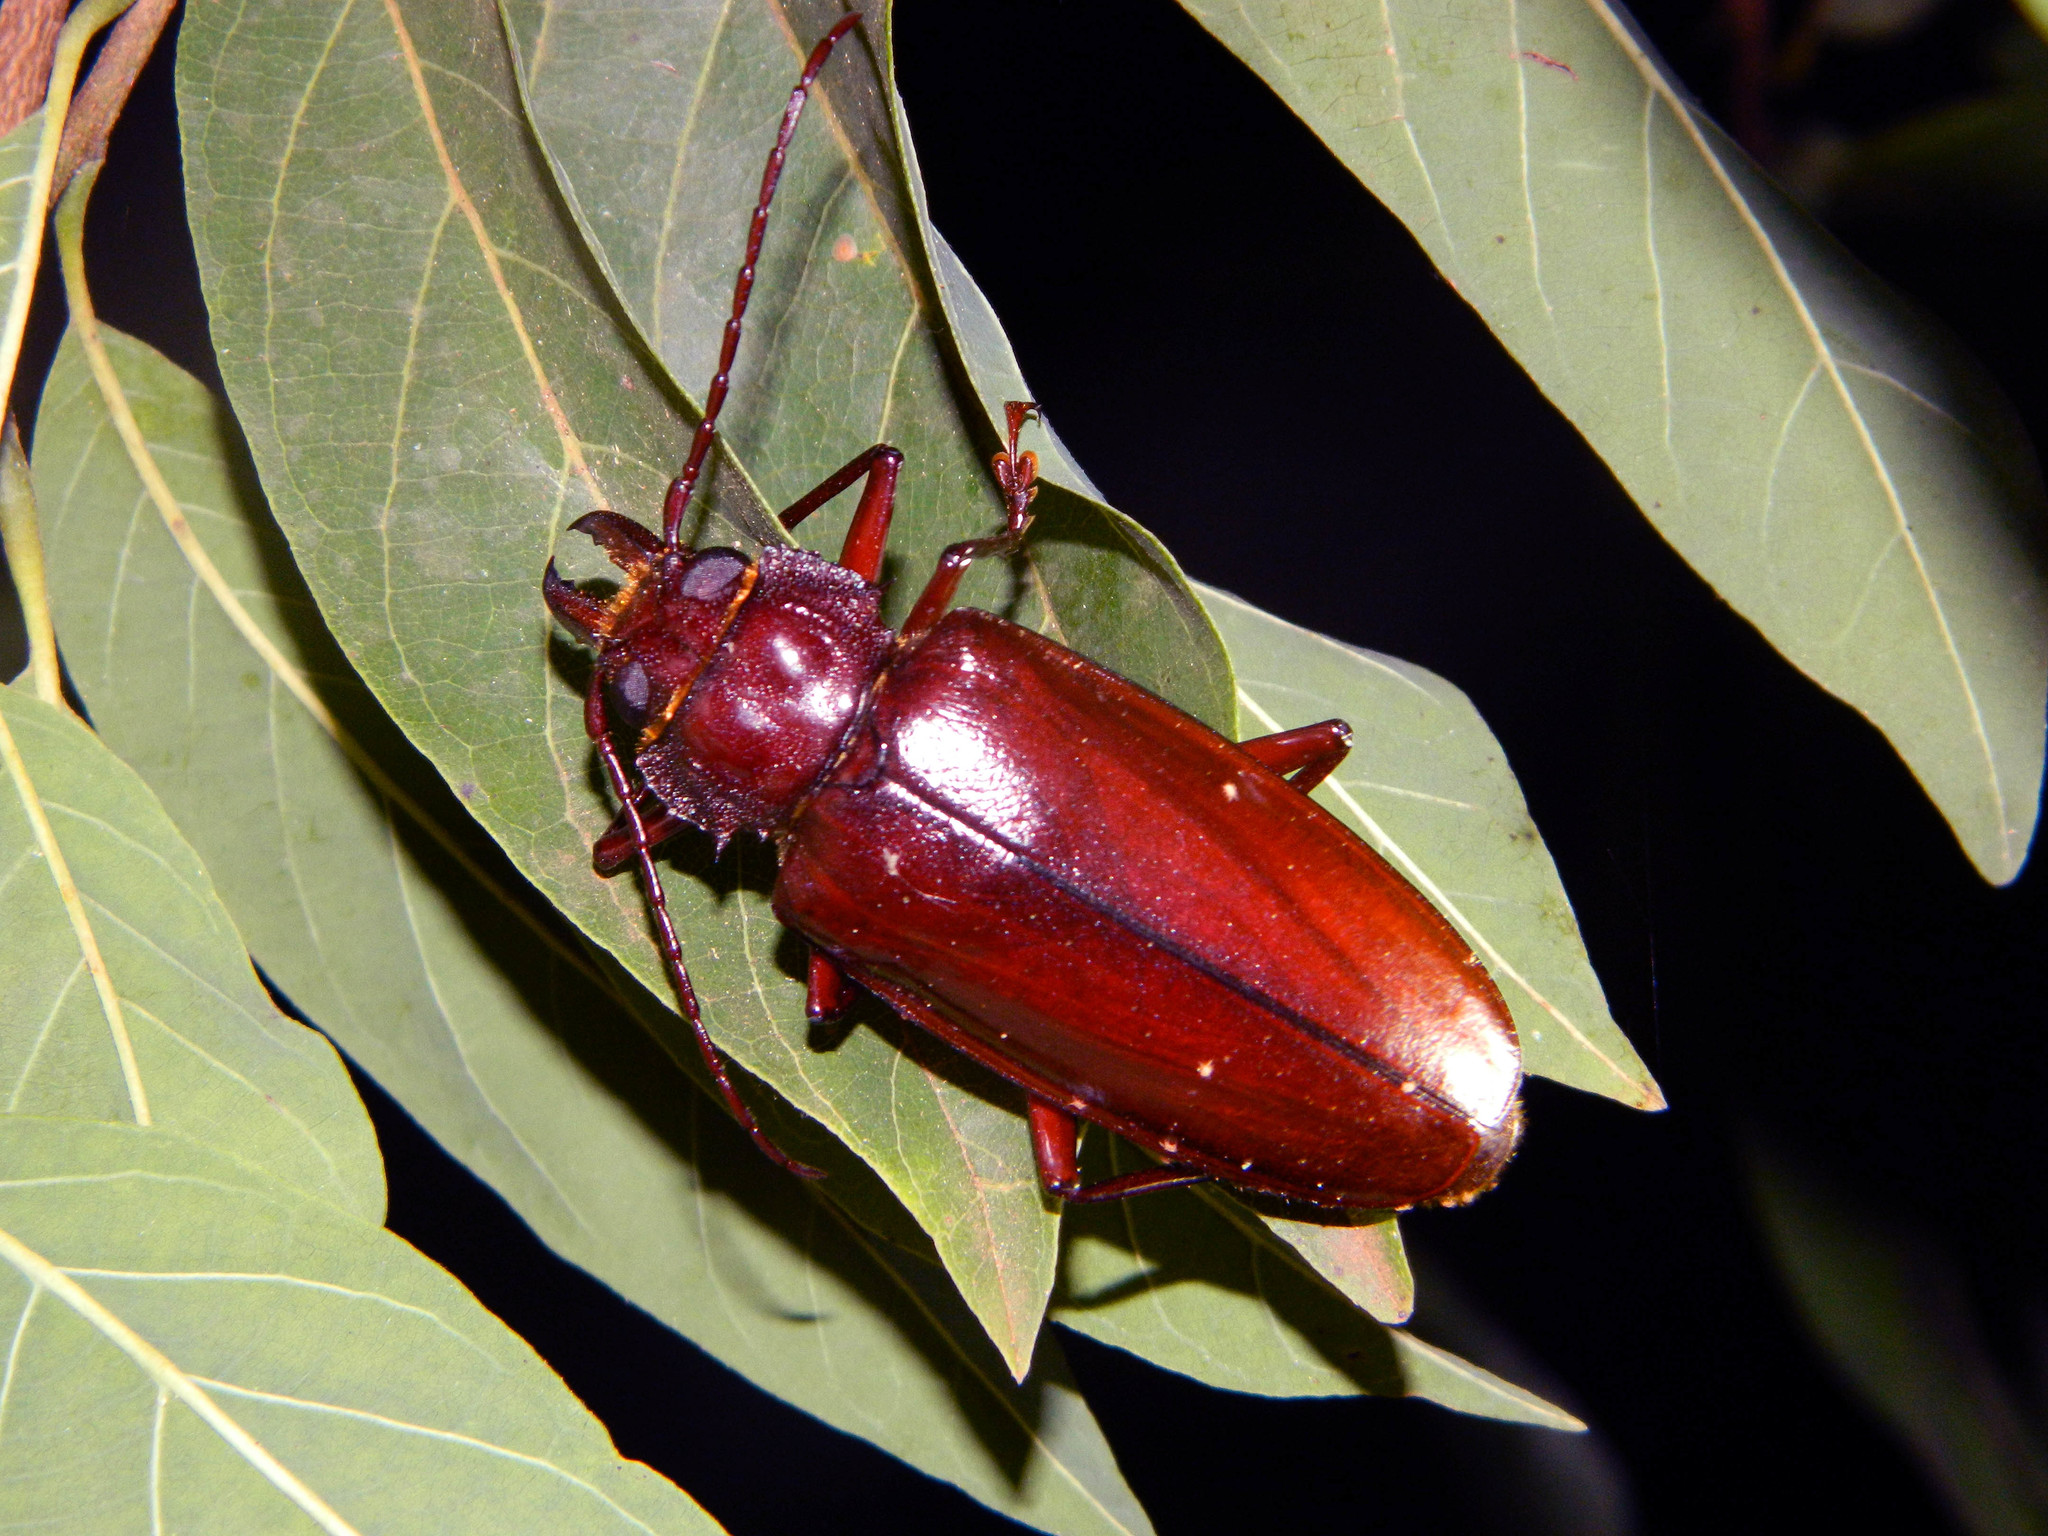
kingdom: Animalia
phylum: Arthropoda
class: Insecta
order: Coleoptera
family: Cerambycidae
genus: Stenodontes
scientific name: Stenodontes exsertus
